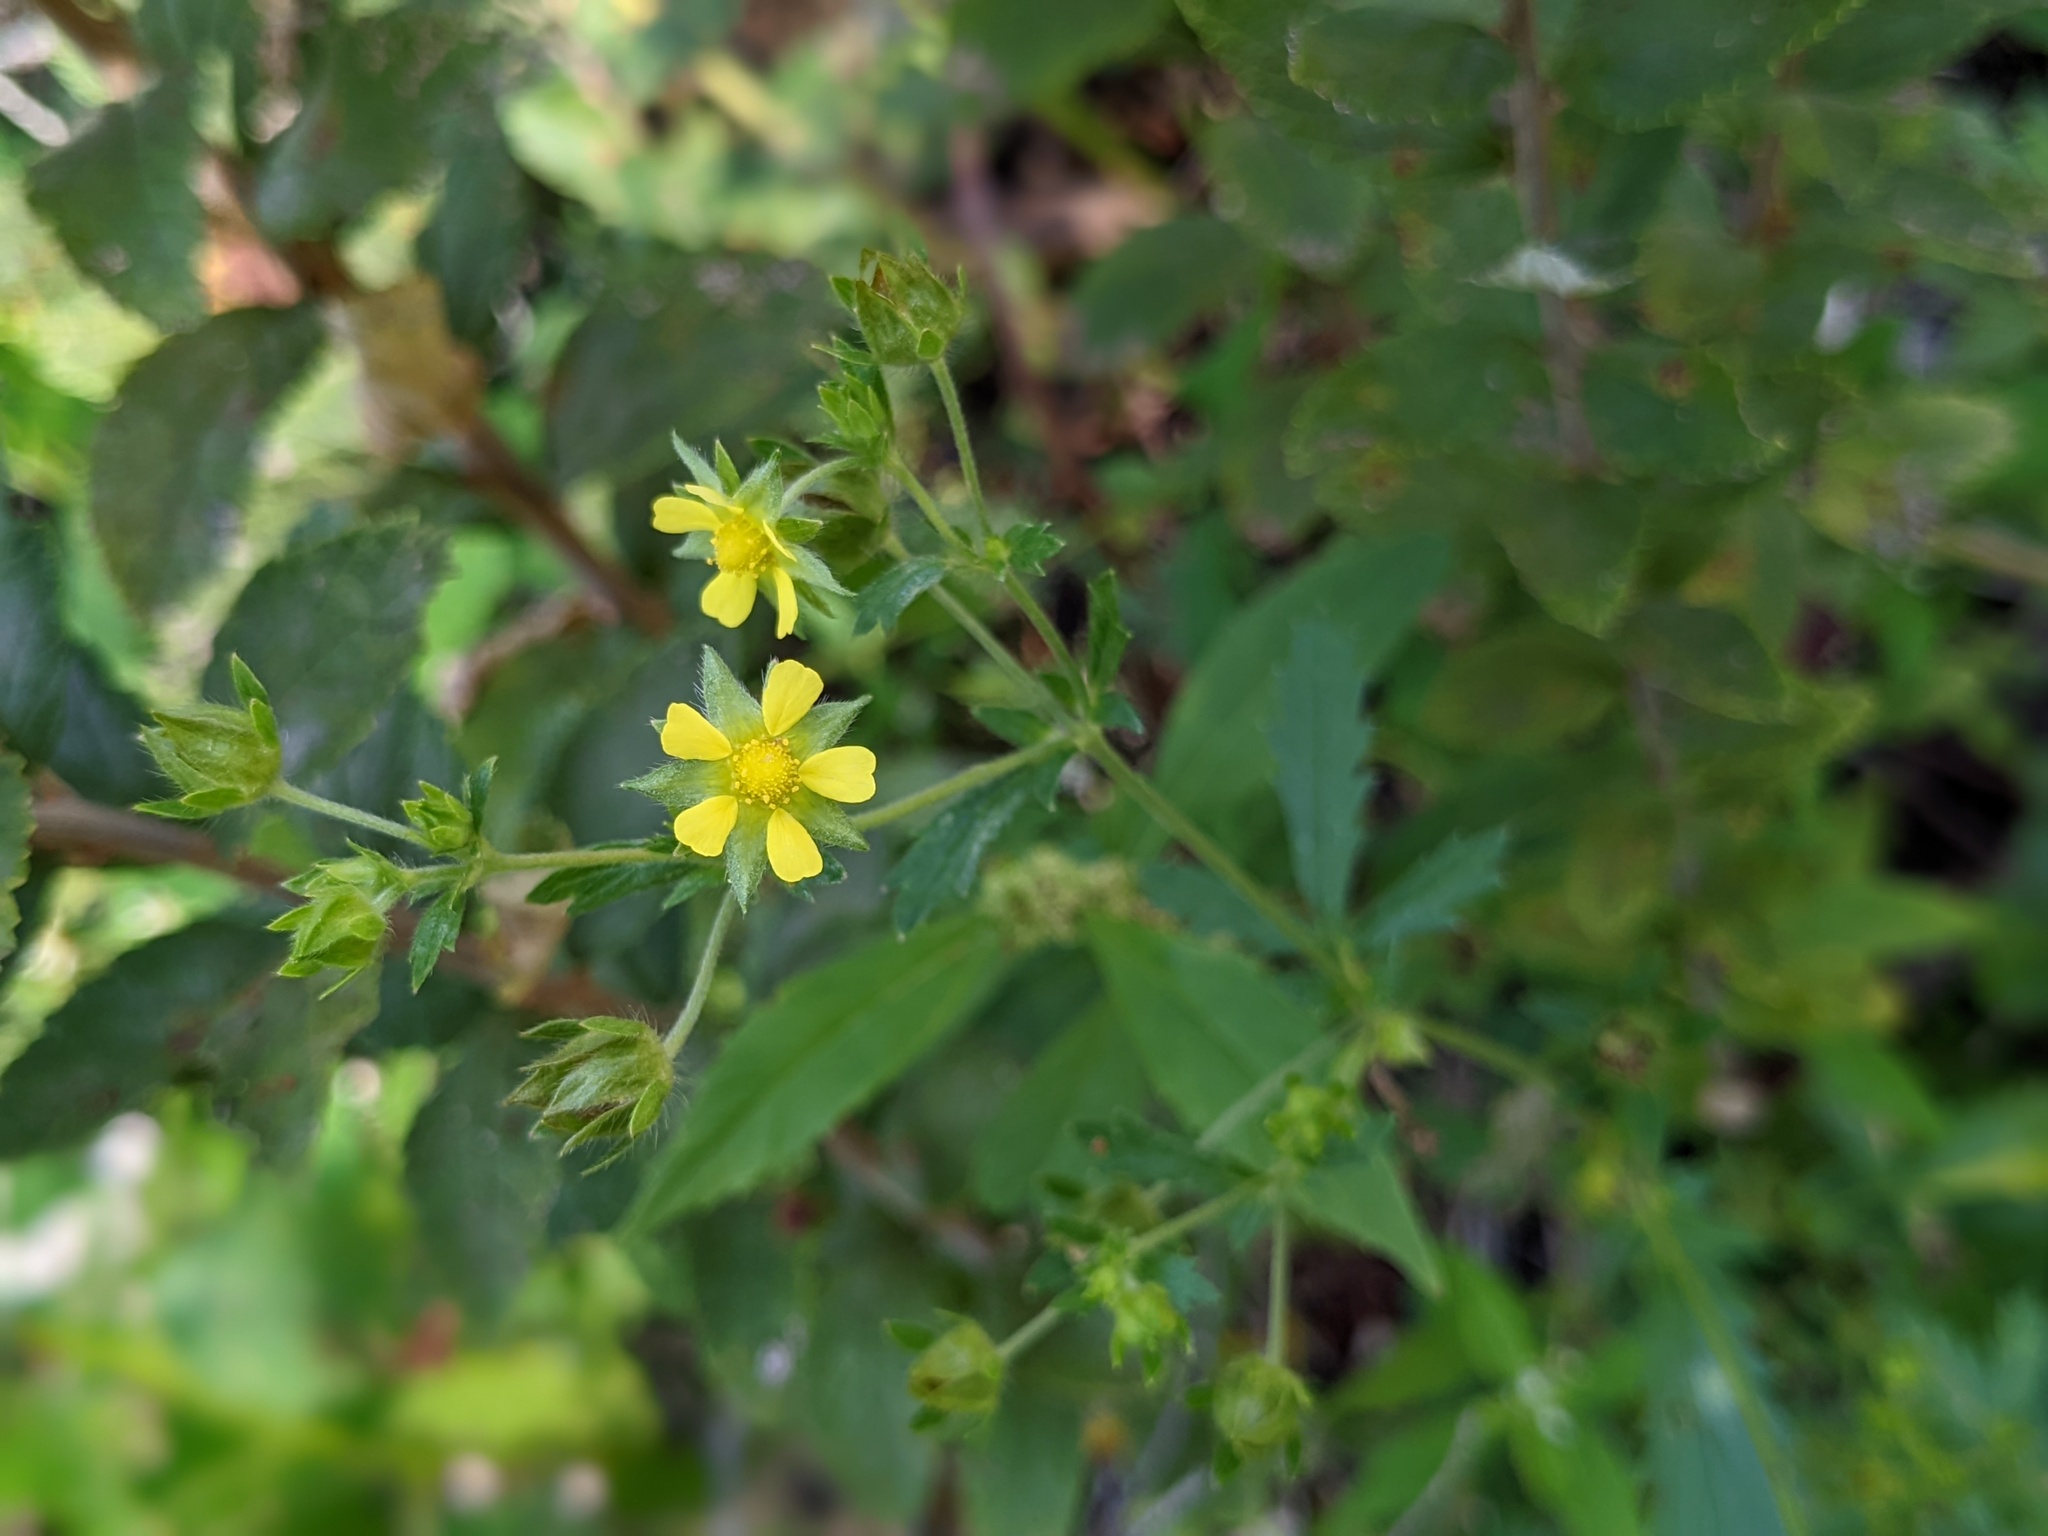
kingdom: Plantae
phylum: Tracheophyta
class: Magnoliopsida
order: Rosales
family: Rosaceae
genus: Potentilla
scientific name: Potentilla norvegica
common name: Ternate-leaved cinquefoil
